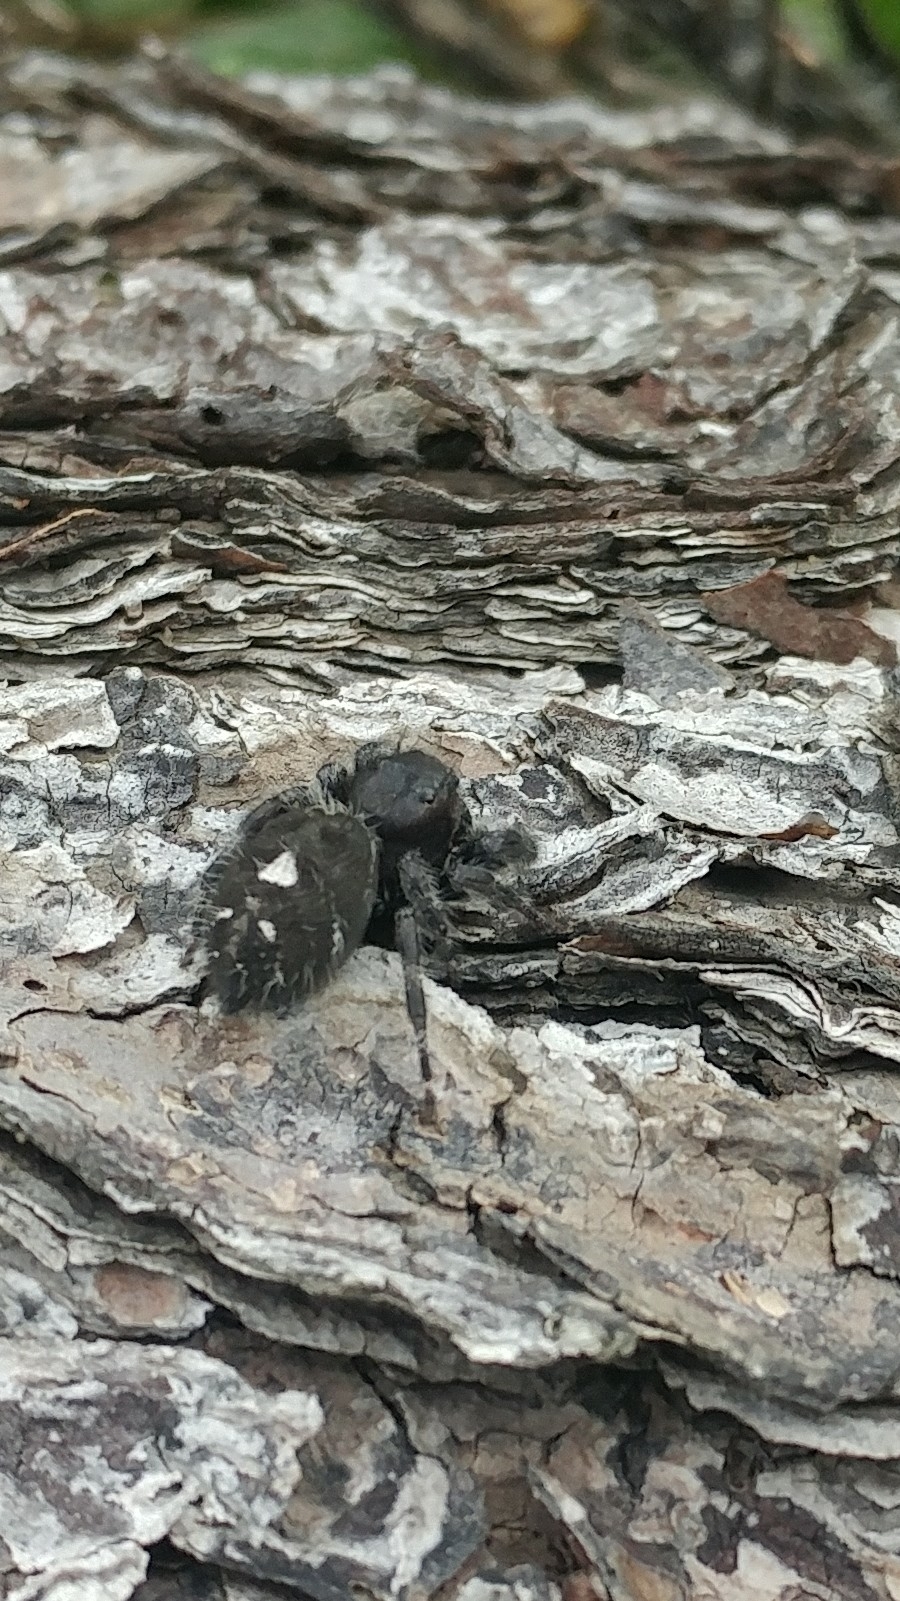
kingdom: Animalia
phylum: Arthropoda
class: Arachnida
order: Araneae
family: Salticidae
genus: Phidippus
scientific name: Phidippus audax
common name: Bold jumper
